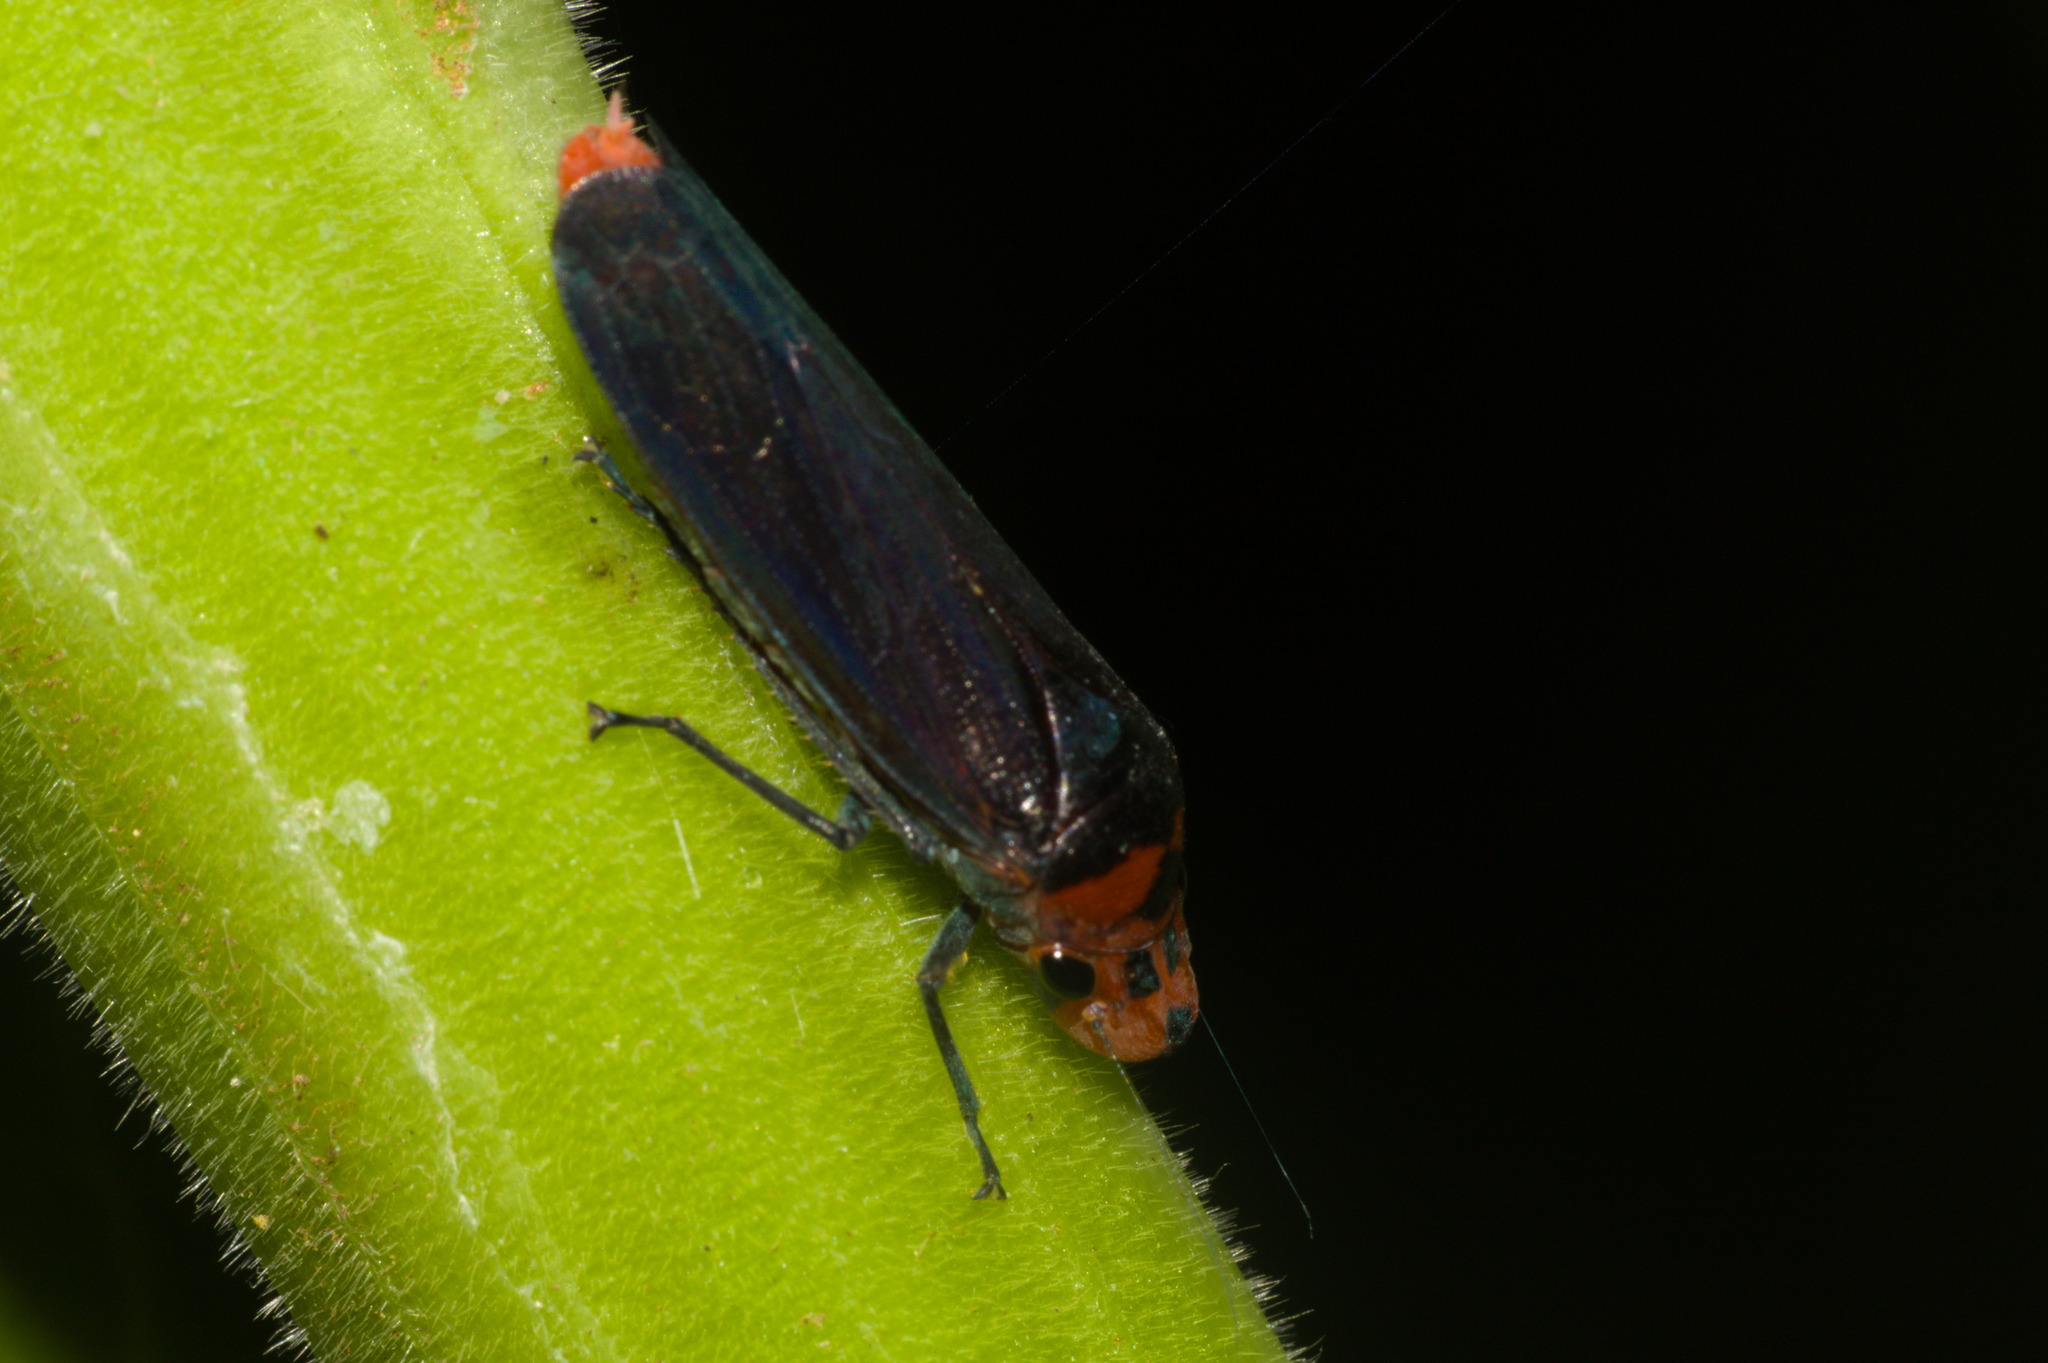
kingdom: Animalia
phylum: Arthropoda
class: Insecta
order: Hemiptera
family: Cicadellidae
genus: Aulacizes
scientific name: Aulacizes quadripunctata
